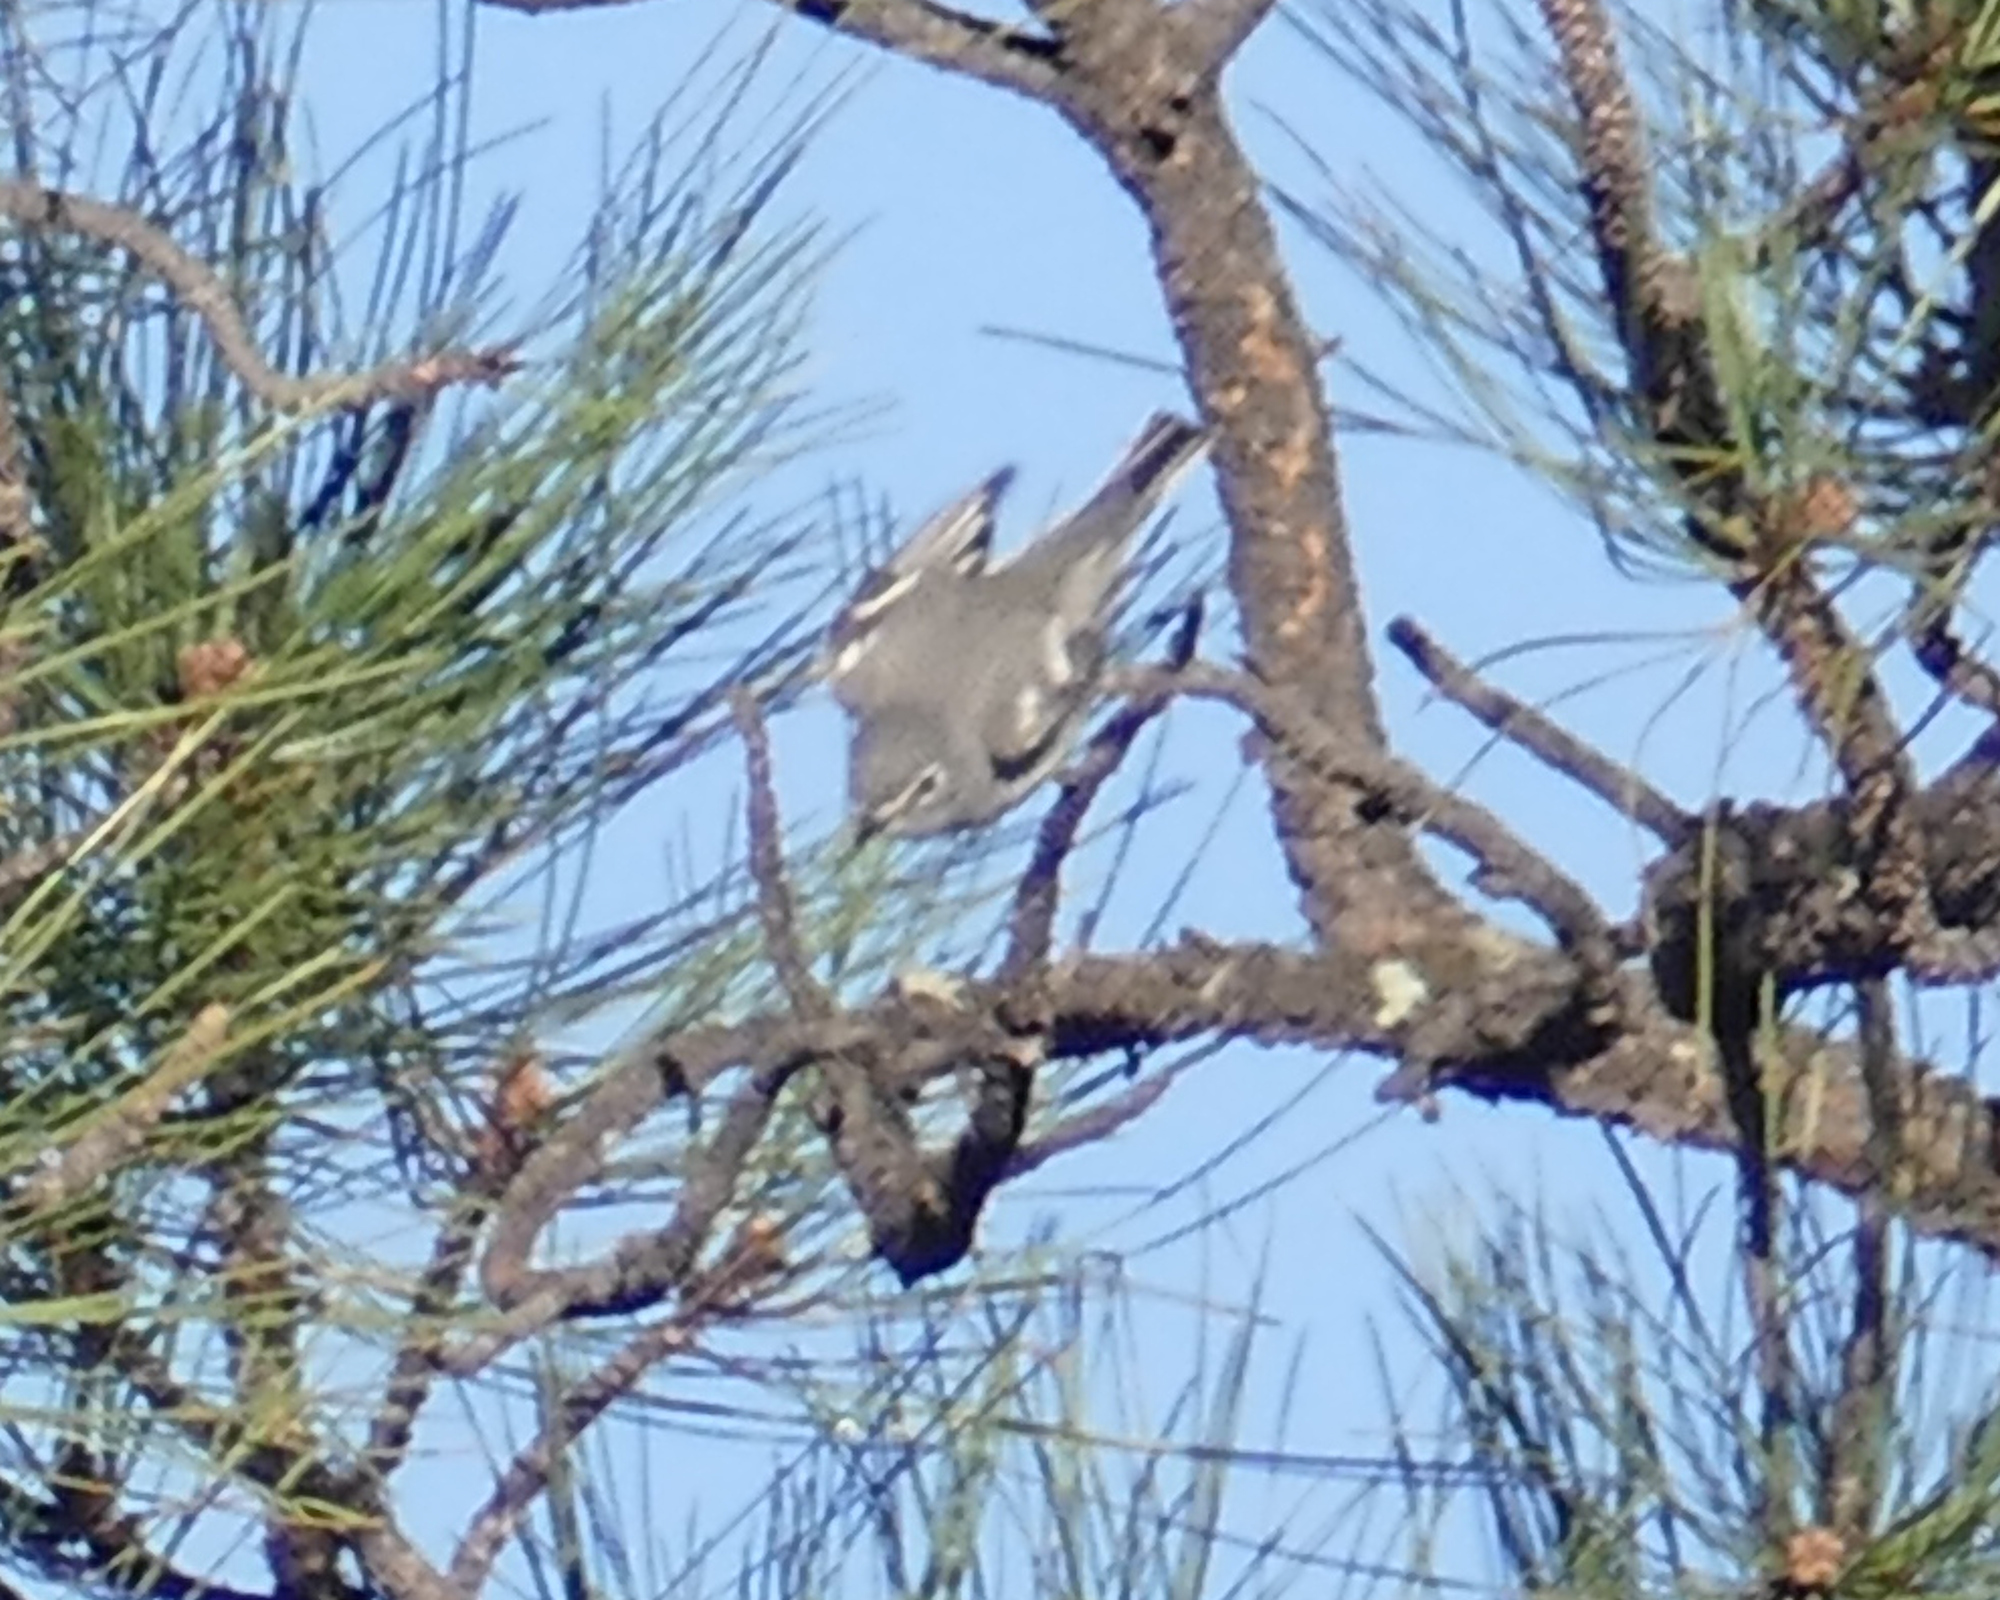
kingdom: Animalia
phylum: Chordata
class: Aves
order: Passeriformes
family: Vireonidae
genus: Vireo
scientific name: Vireo plumbeus
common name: Plumbeous vireo
